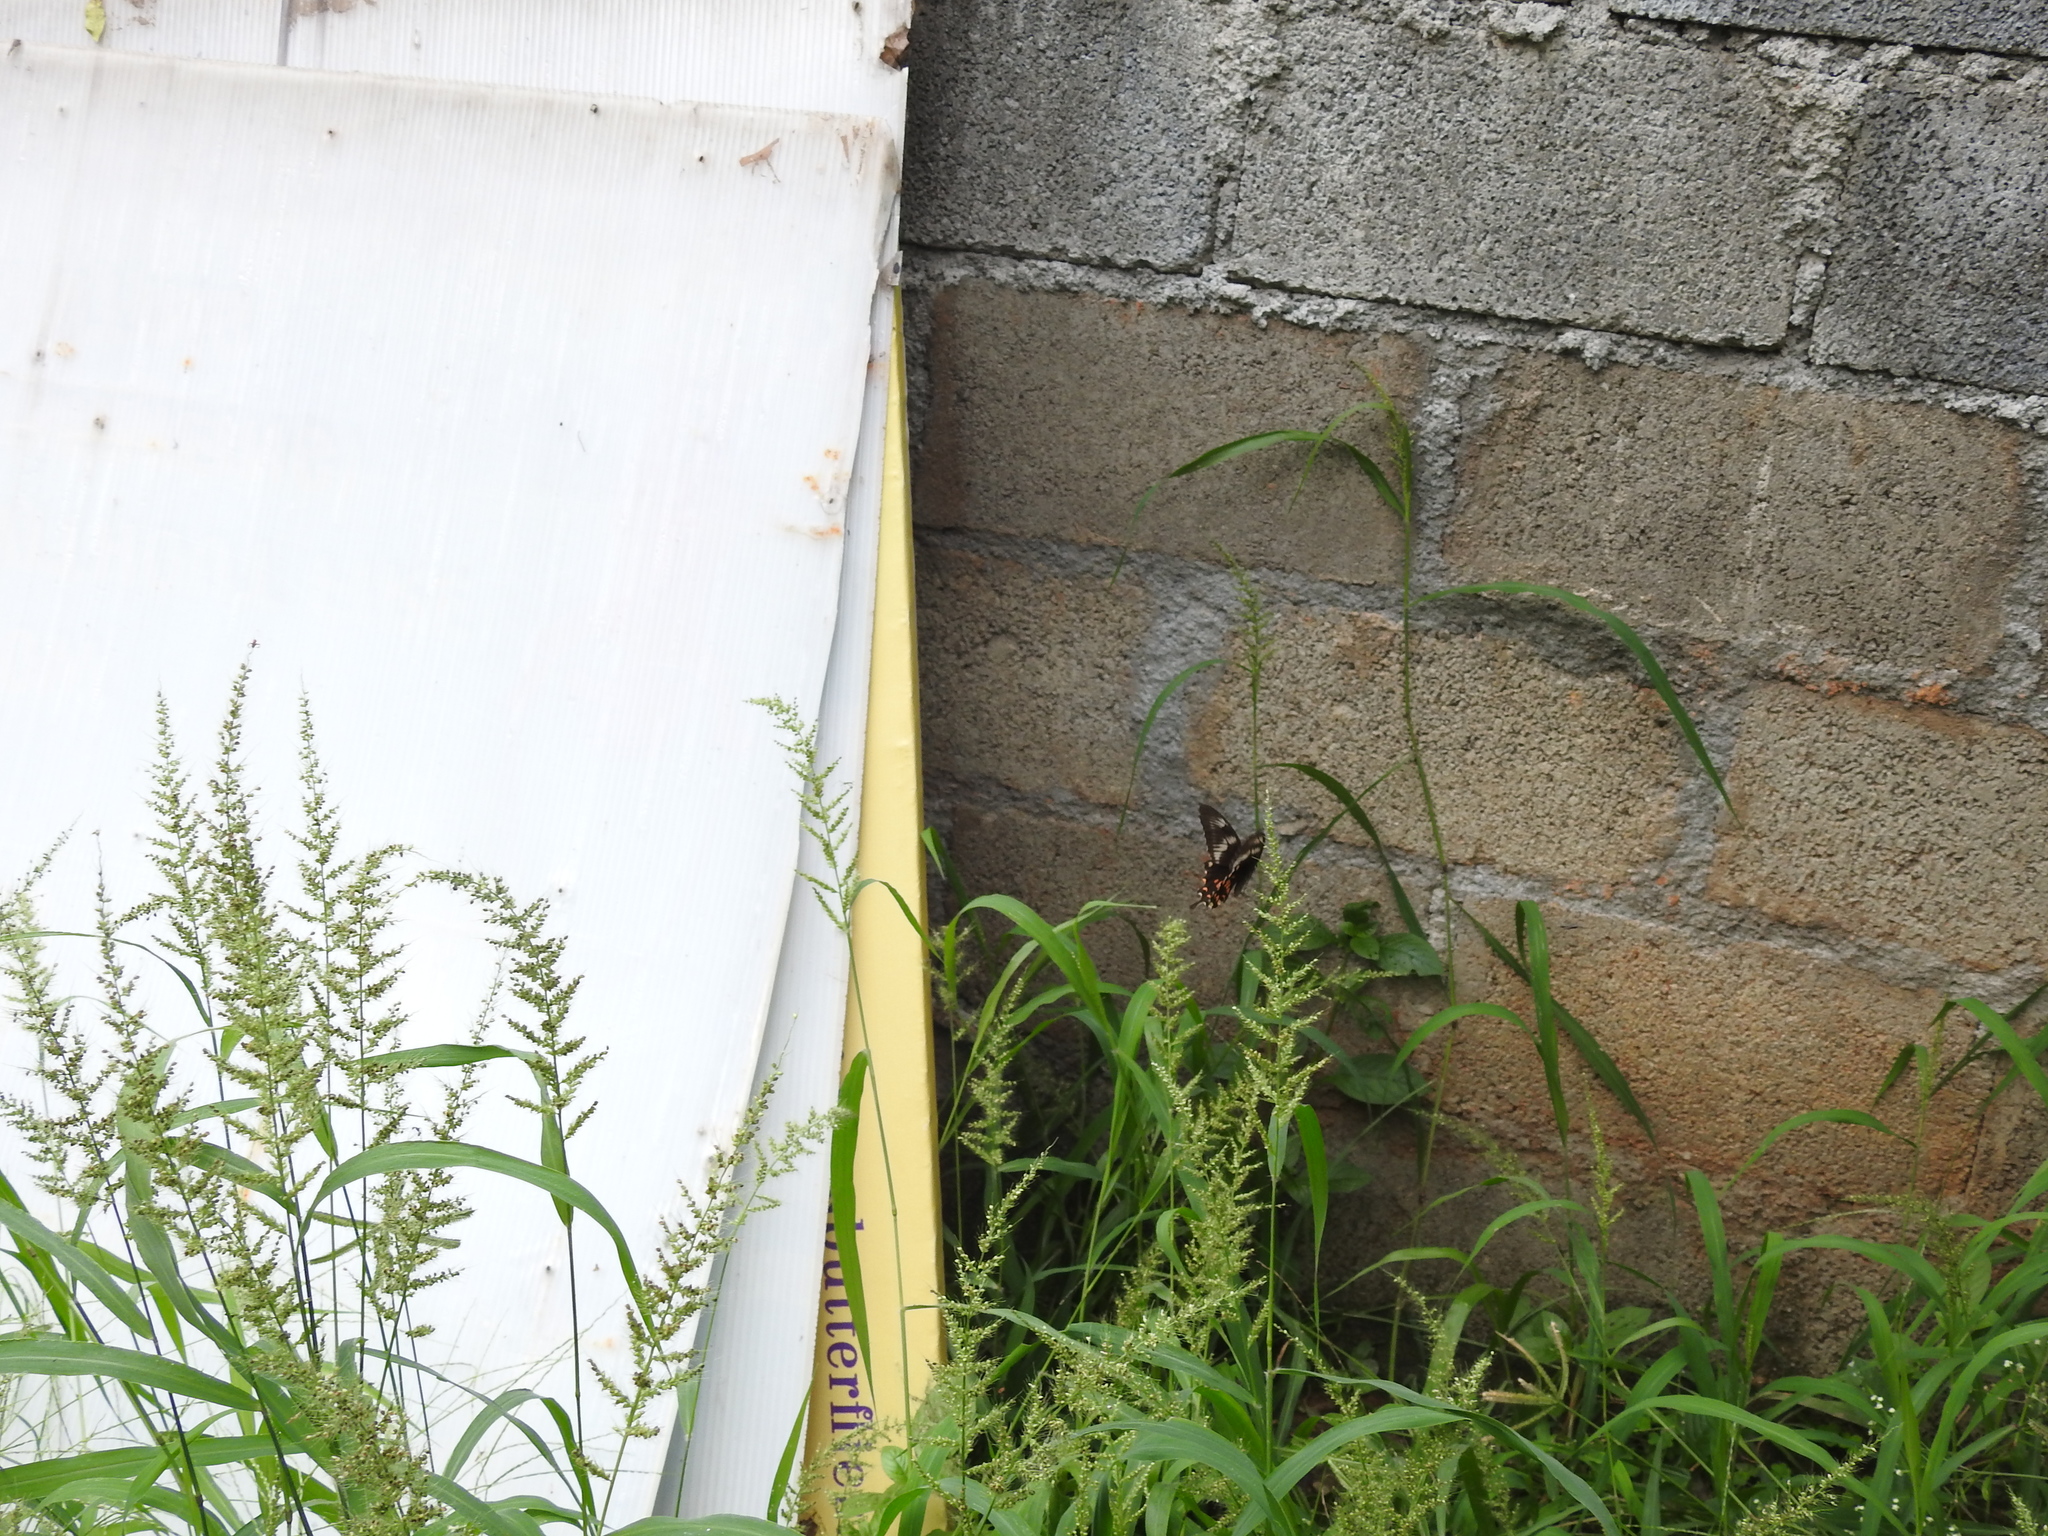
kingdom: Animalia
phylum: Arthropoda
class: Insecta
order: Lepidoptera
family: Papilionidae
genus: Papilio
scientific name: Papilio polytes
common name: Common mormon
